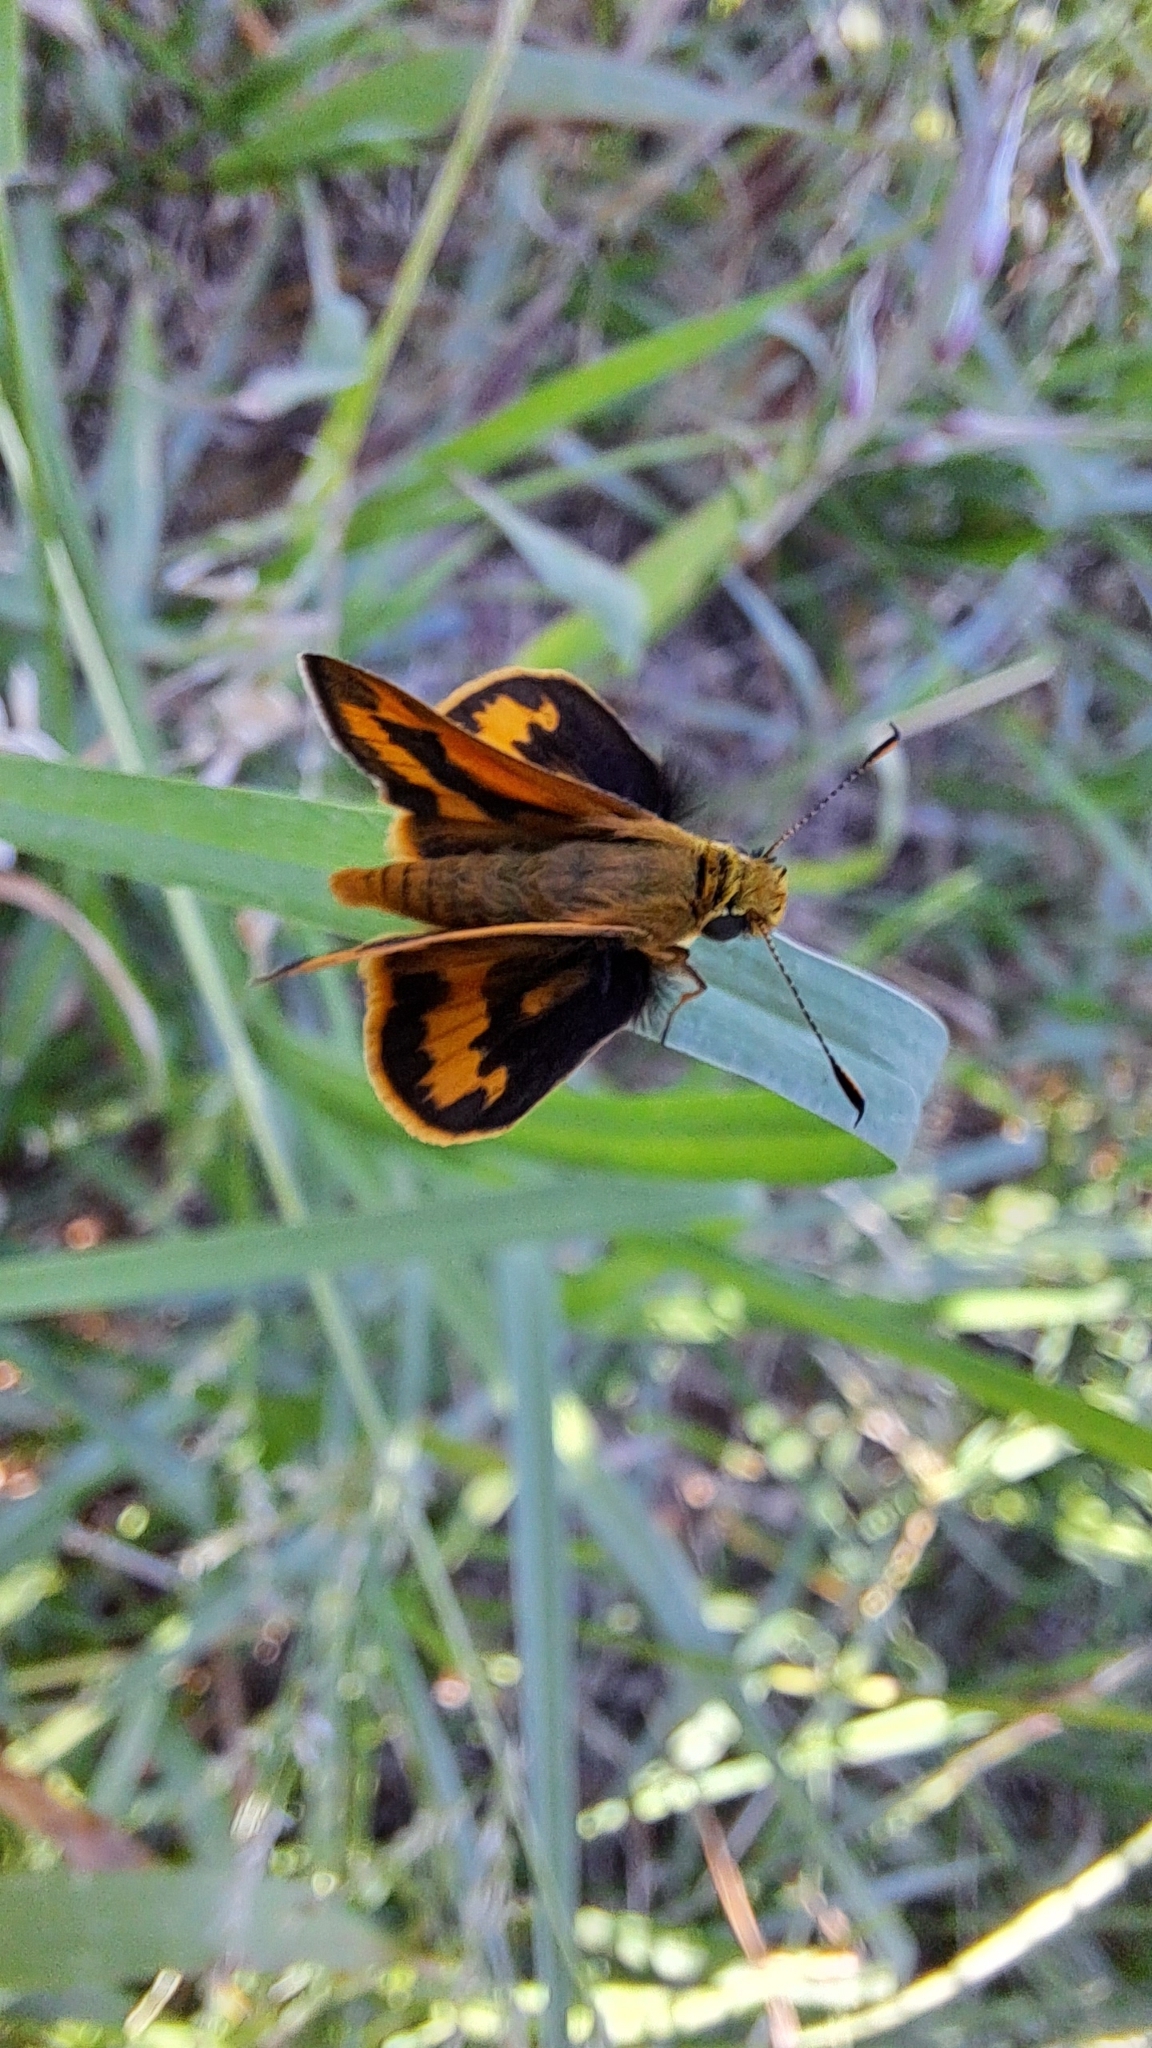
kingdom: Animalia
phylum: Arthropoda
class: Insecta
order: Lepidoptera
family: Hesperiidae
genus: Ocybadistes
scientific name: Ocybadistes walkeri
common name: Yellow-banded dart
